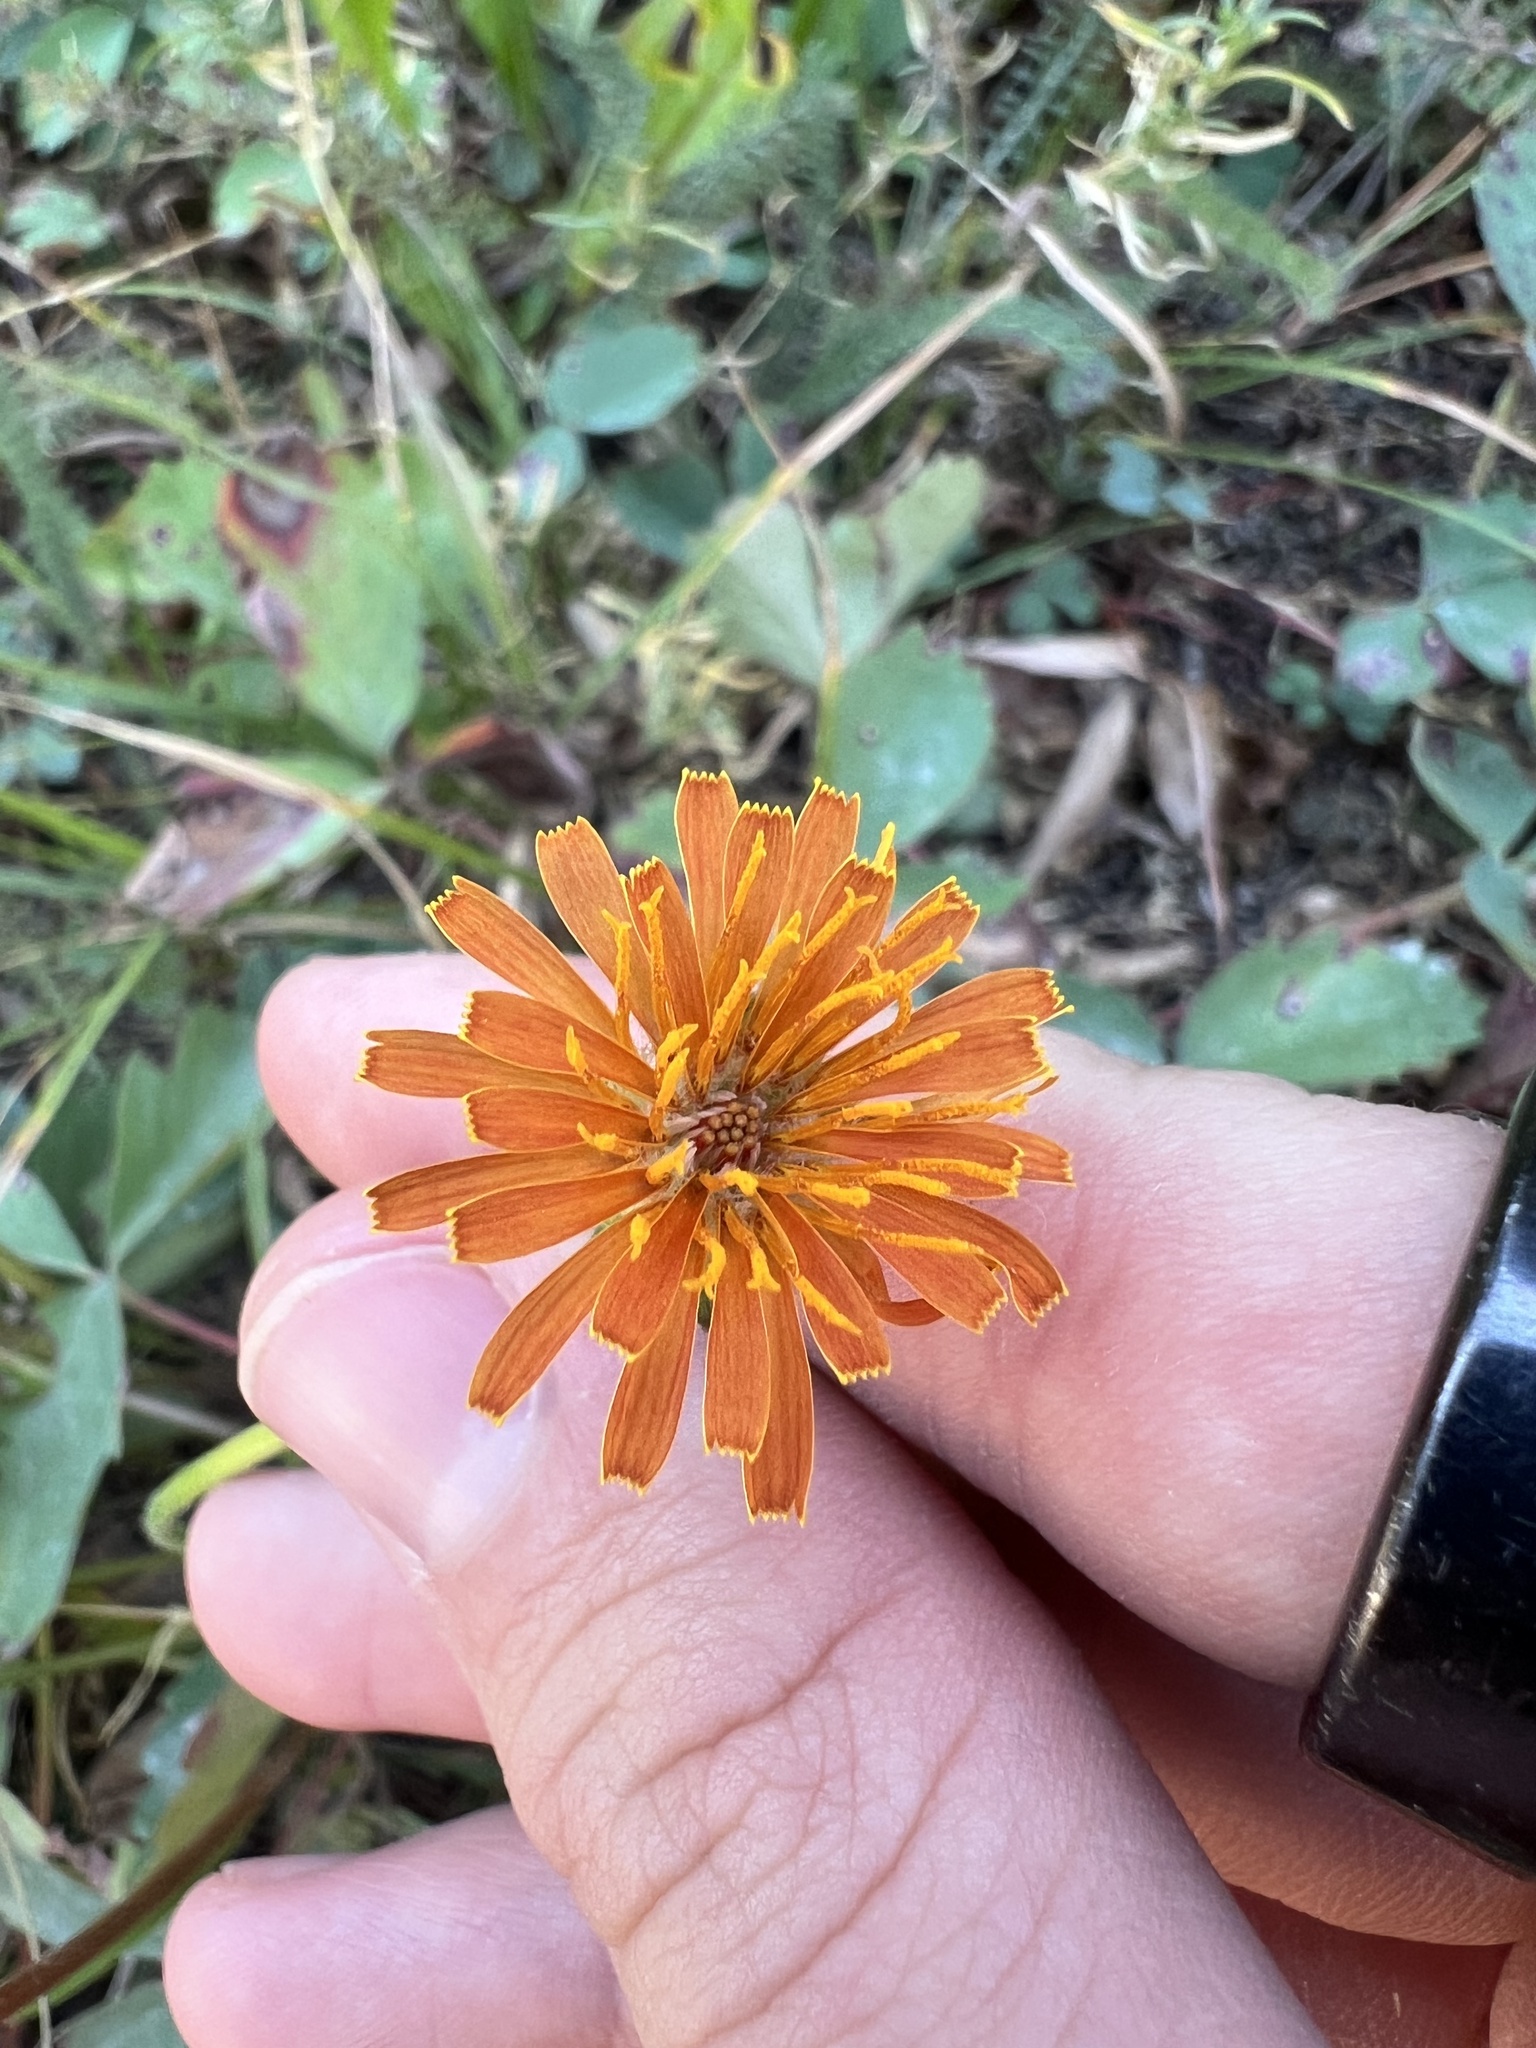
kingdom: Plantae
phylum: Tracheophyta
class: Magnoliopsida
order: Asterales
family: Asteraceae
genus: Agoseris
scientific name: Agoseris aurantiaca
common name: Mountain agoseris
